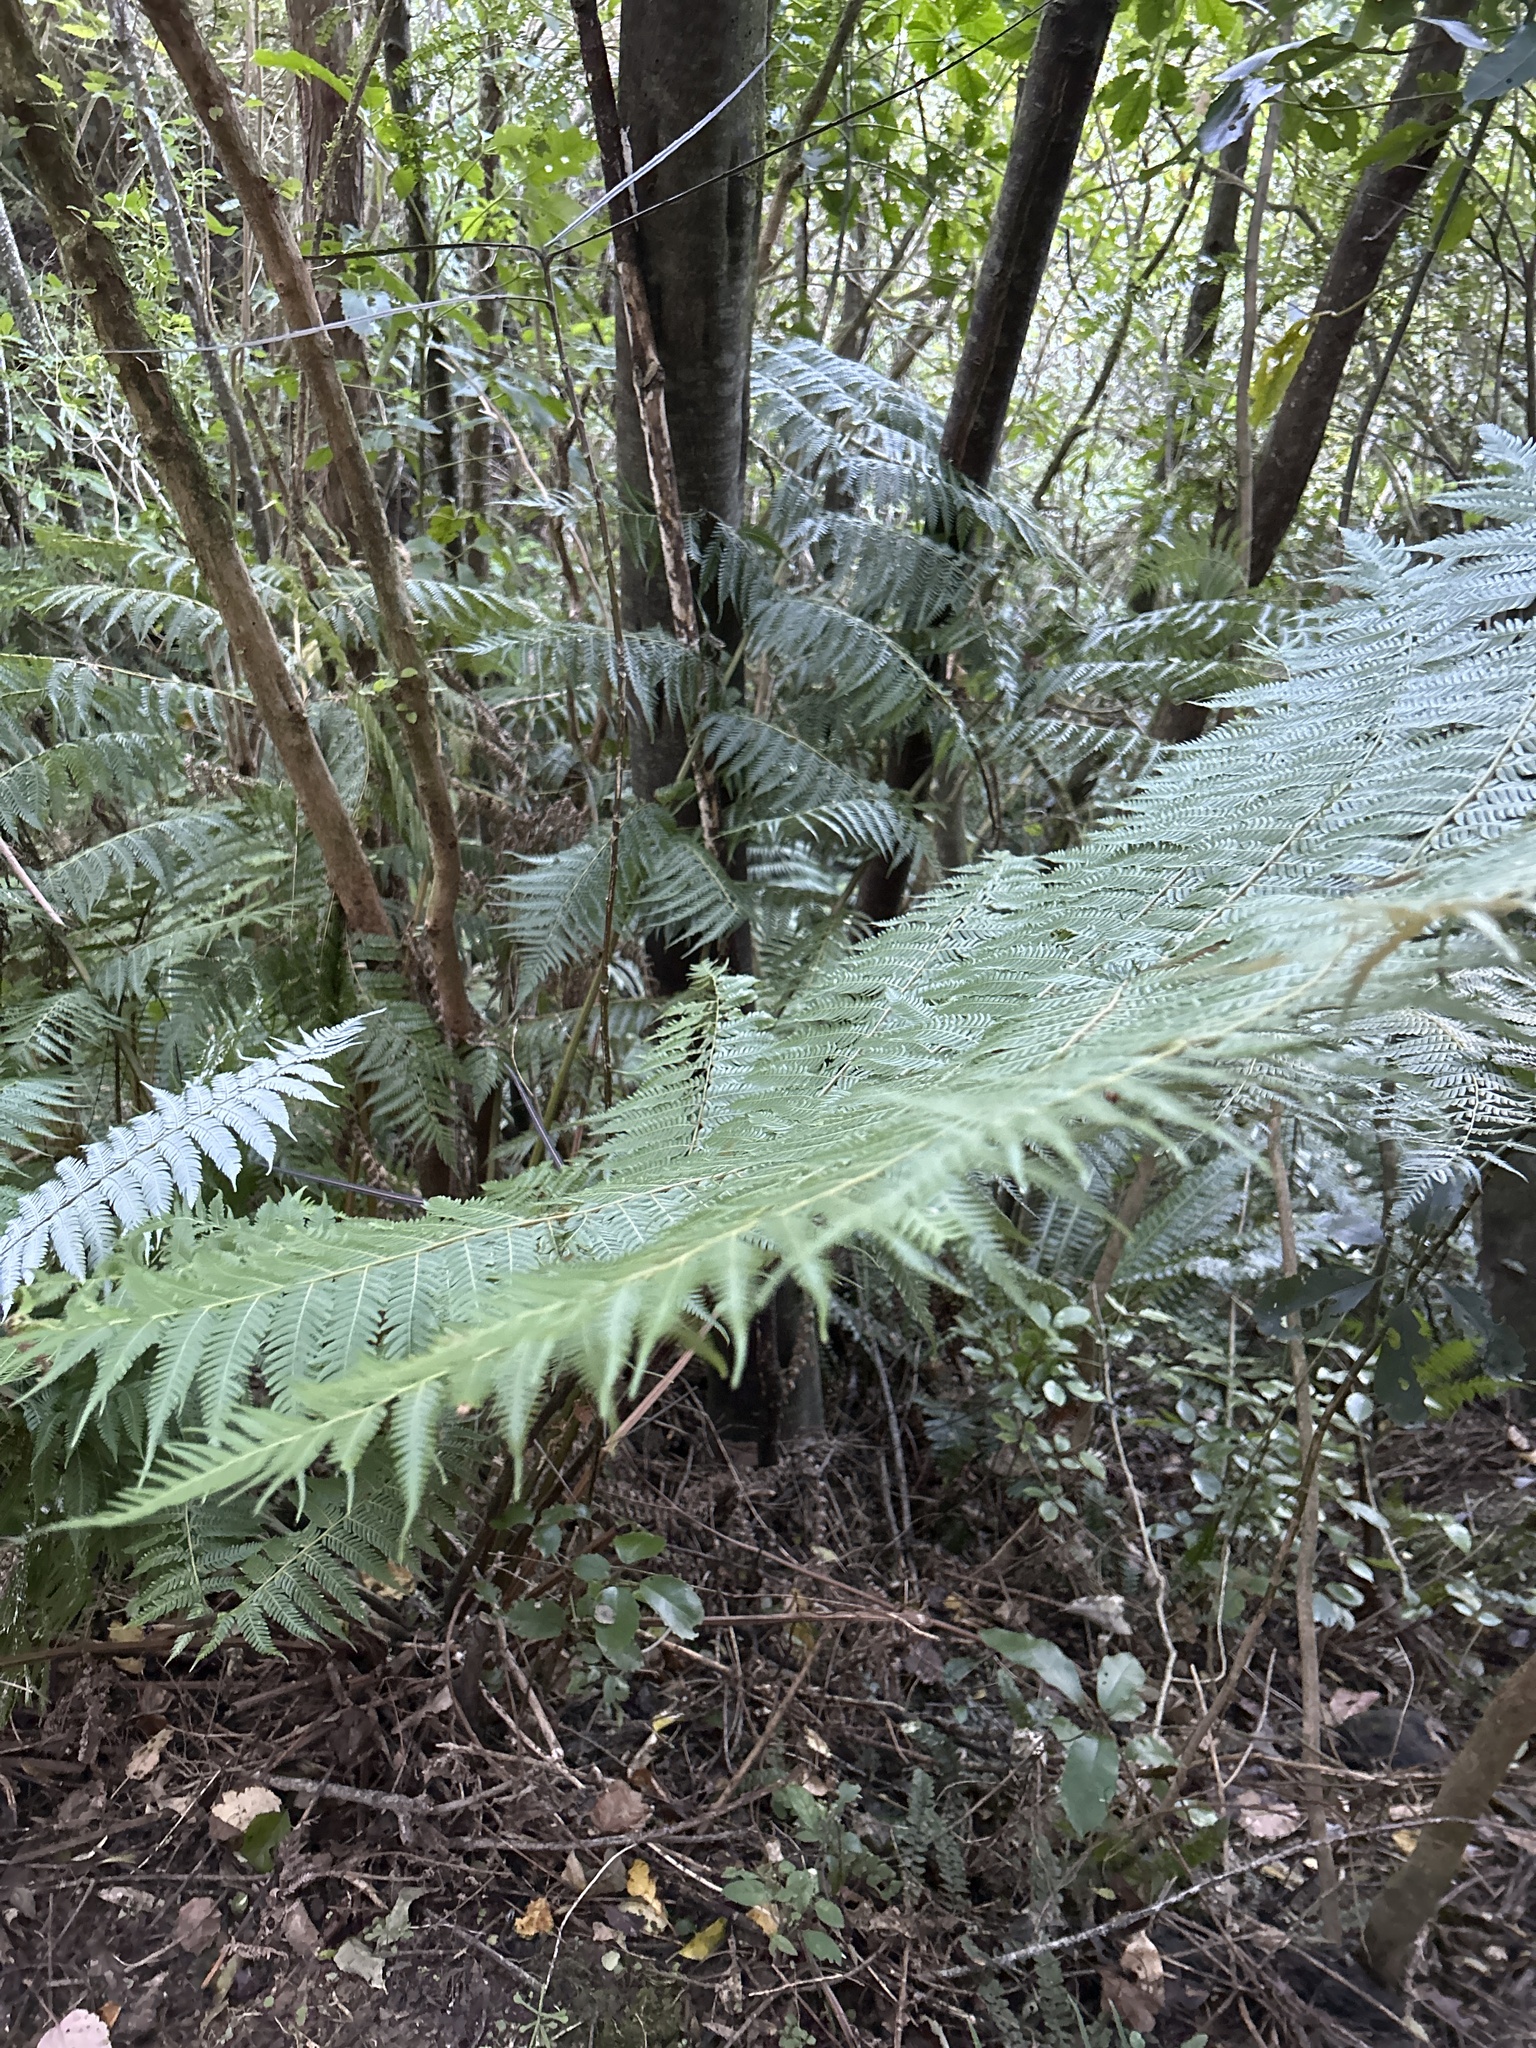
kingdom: Plantae
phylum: Tracheophyta
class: Polypodiopsida
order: Cyatheales
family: Cyatheaceae
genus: Alsophila
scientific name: Alsophila dealbata
